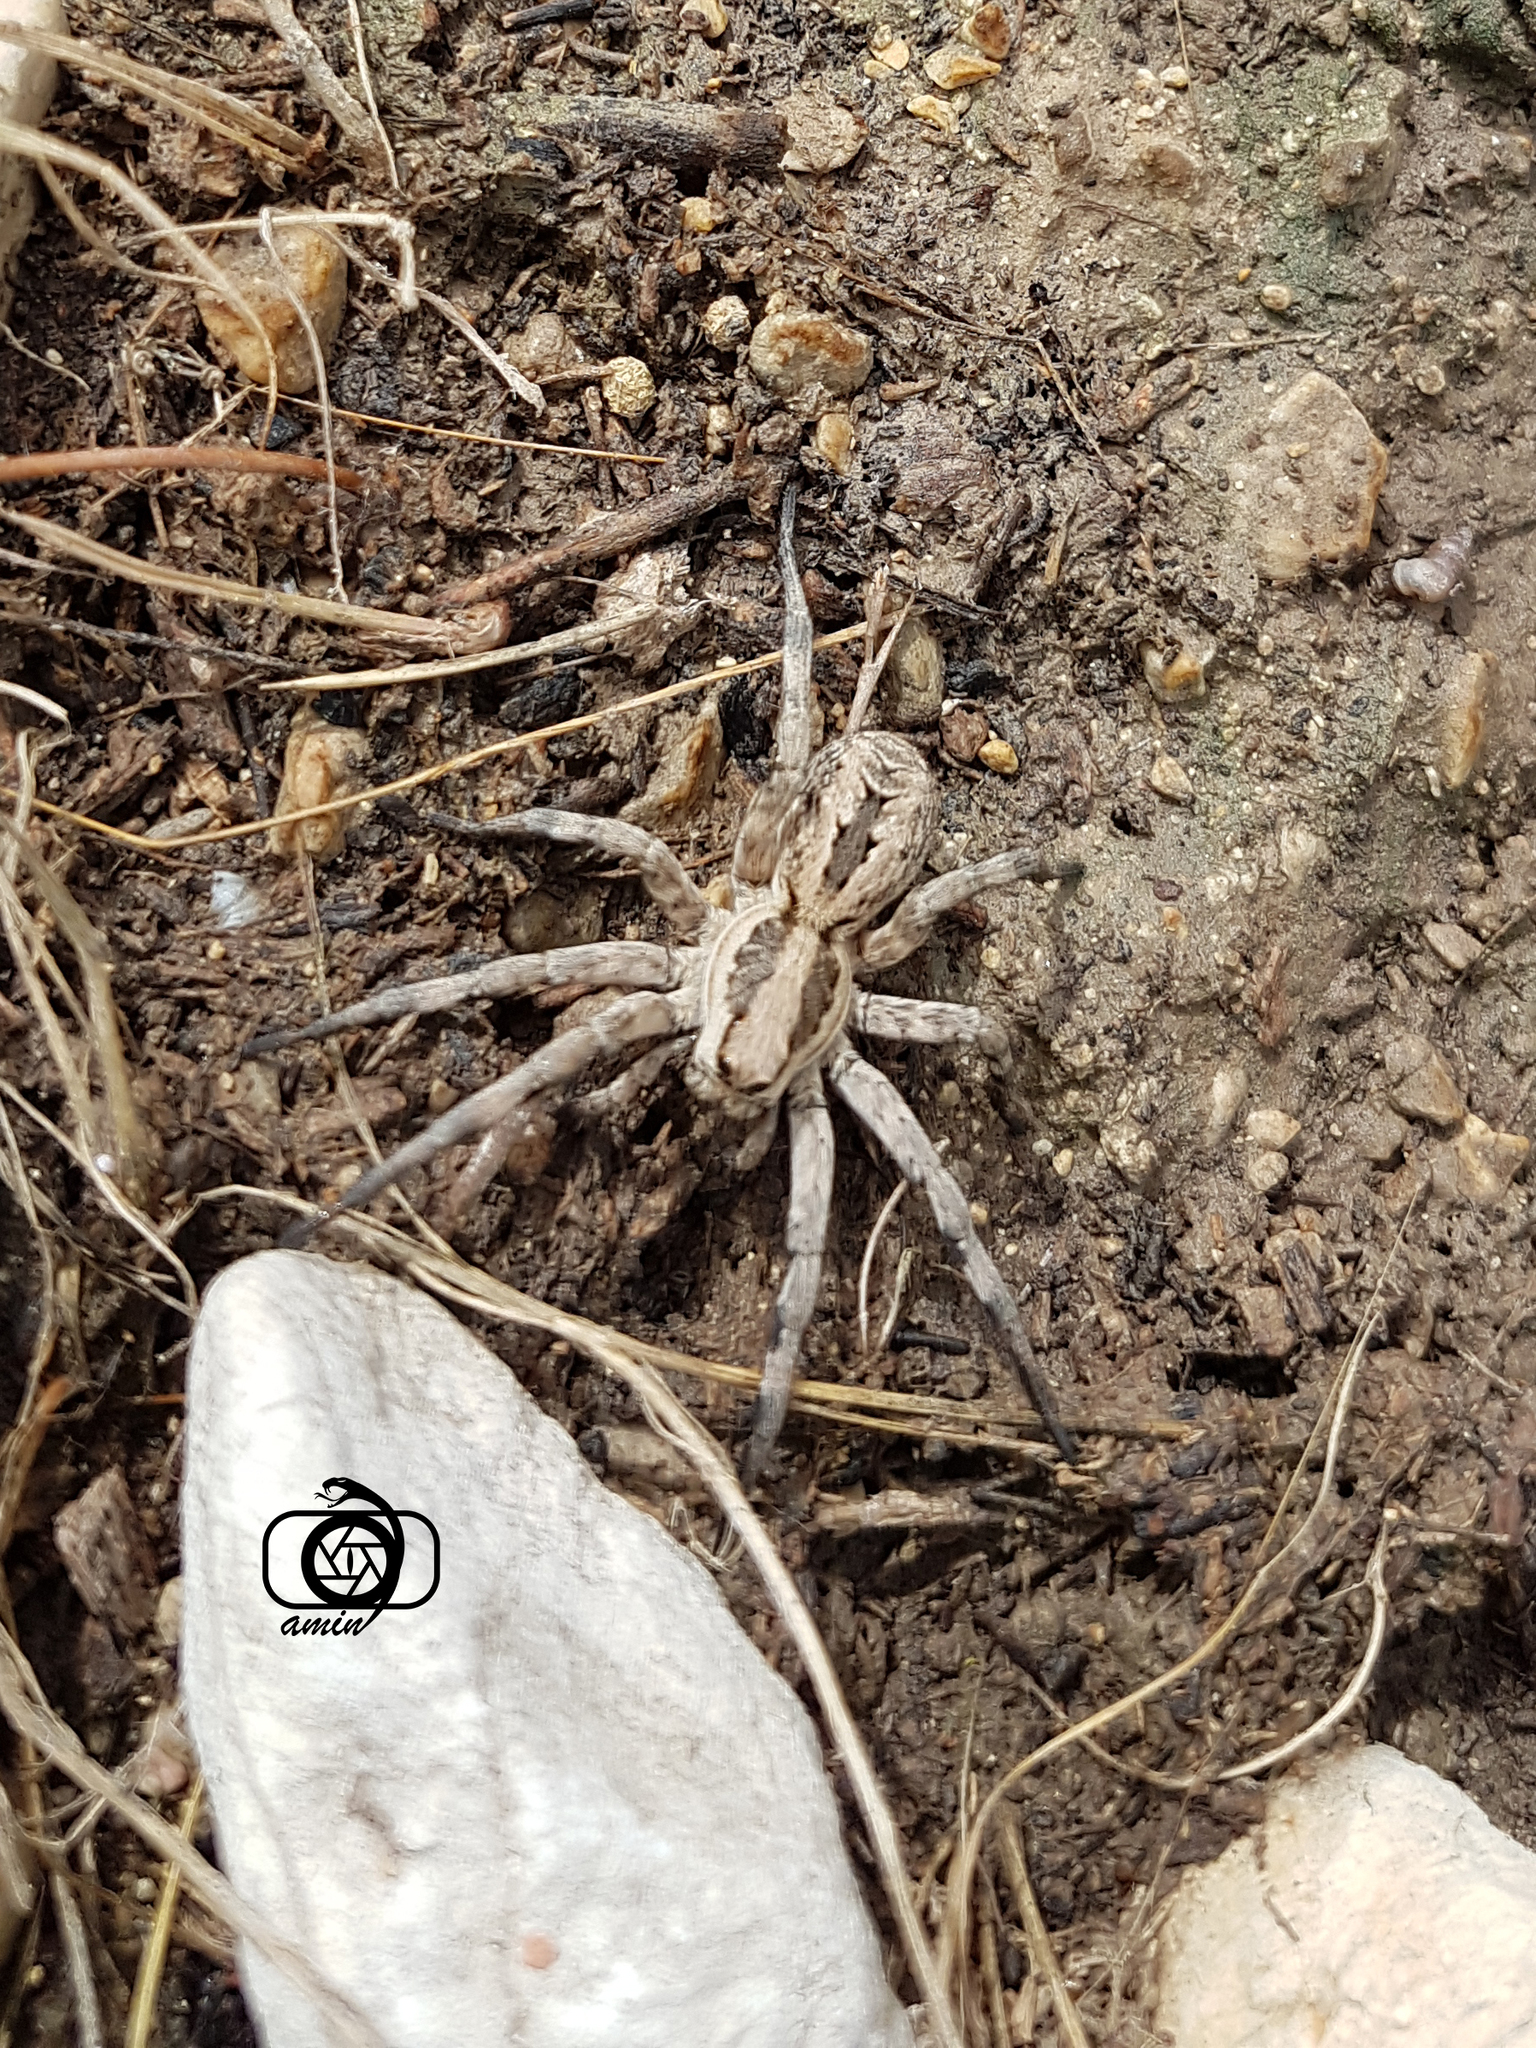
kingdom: Animalia
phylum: Arthropoda
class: Arachnida
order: Araneae
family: Lycosidae
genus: Lycosa
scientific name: Lycosa praegrandis
